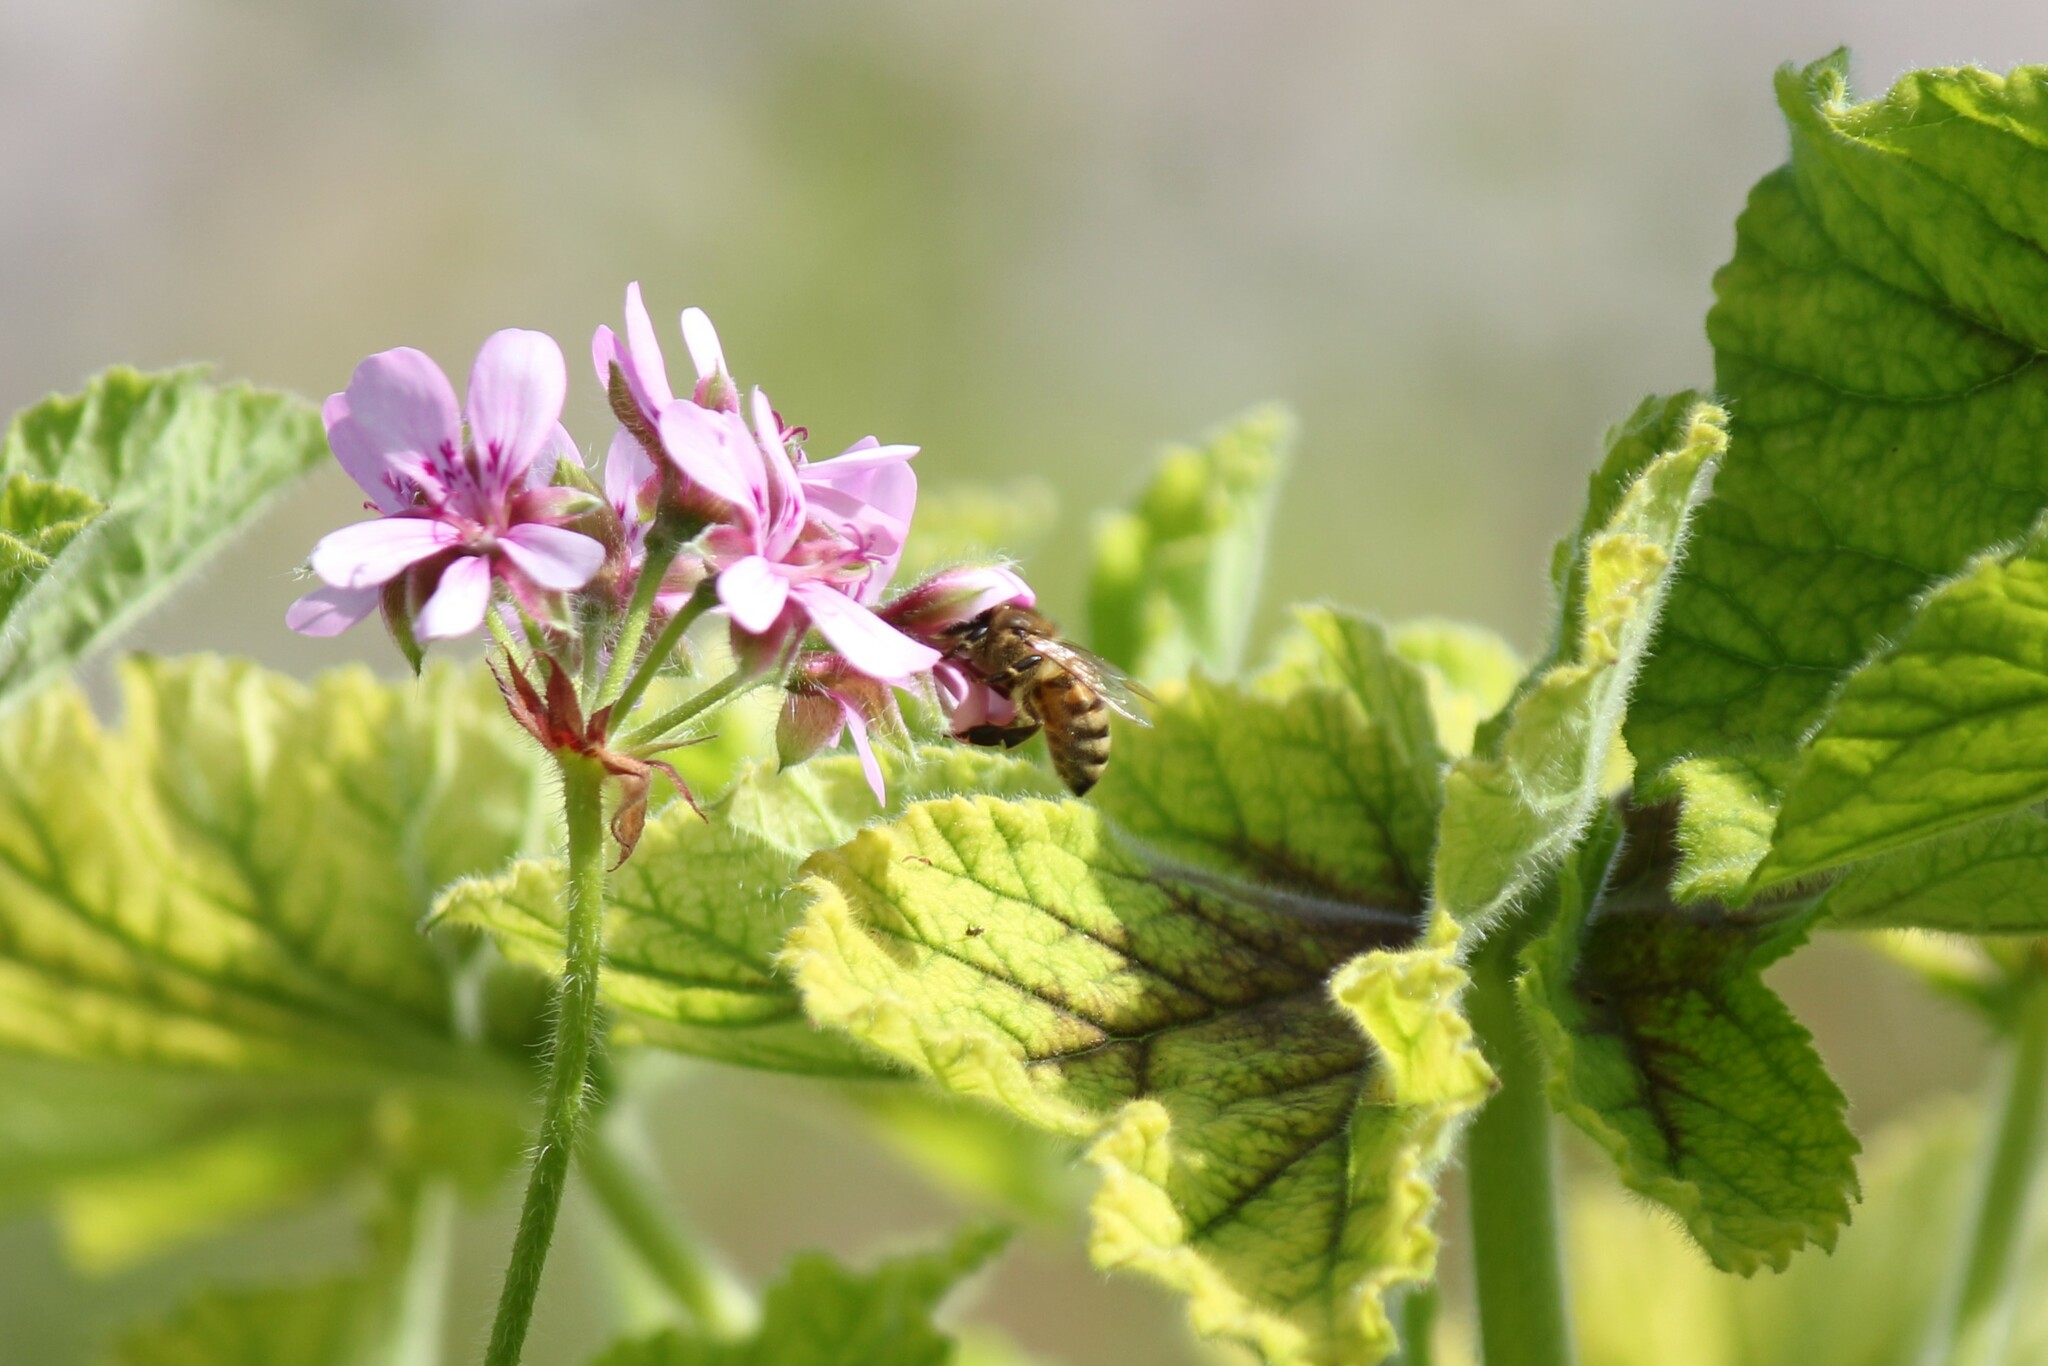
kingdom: Animalia
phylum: Arthropoda
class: Insecta
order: Hymenoptera
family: Apidae
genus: Apis
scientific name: Apis mellifera
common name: Honey bee
